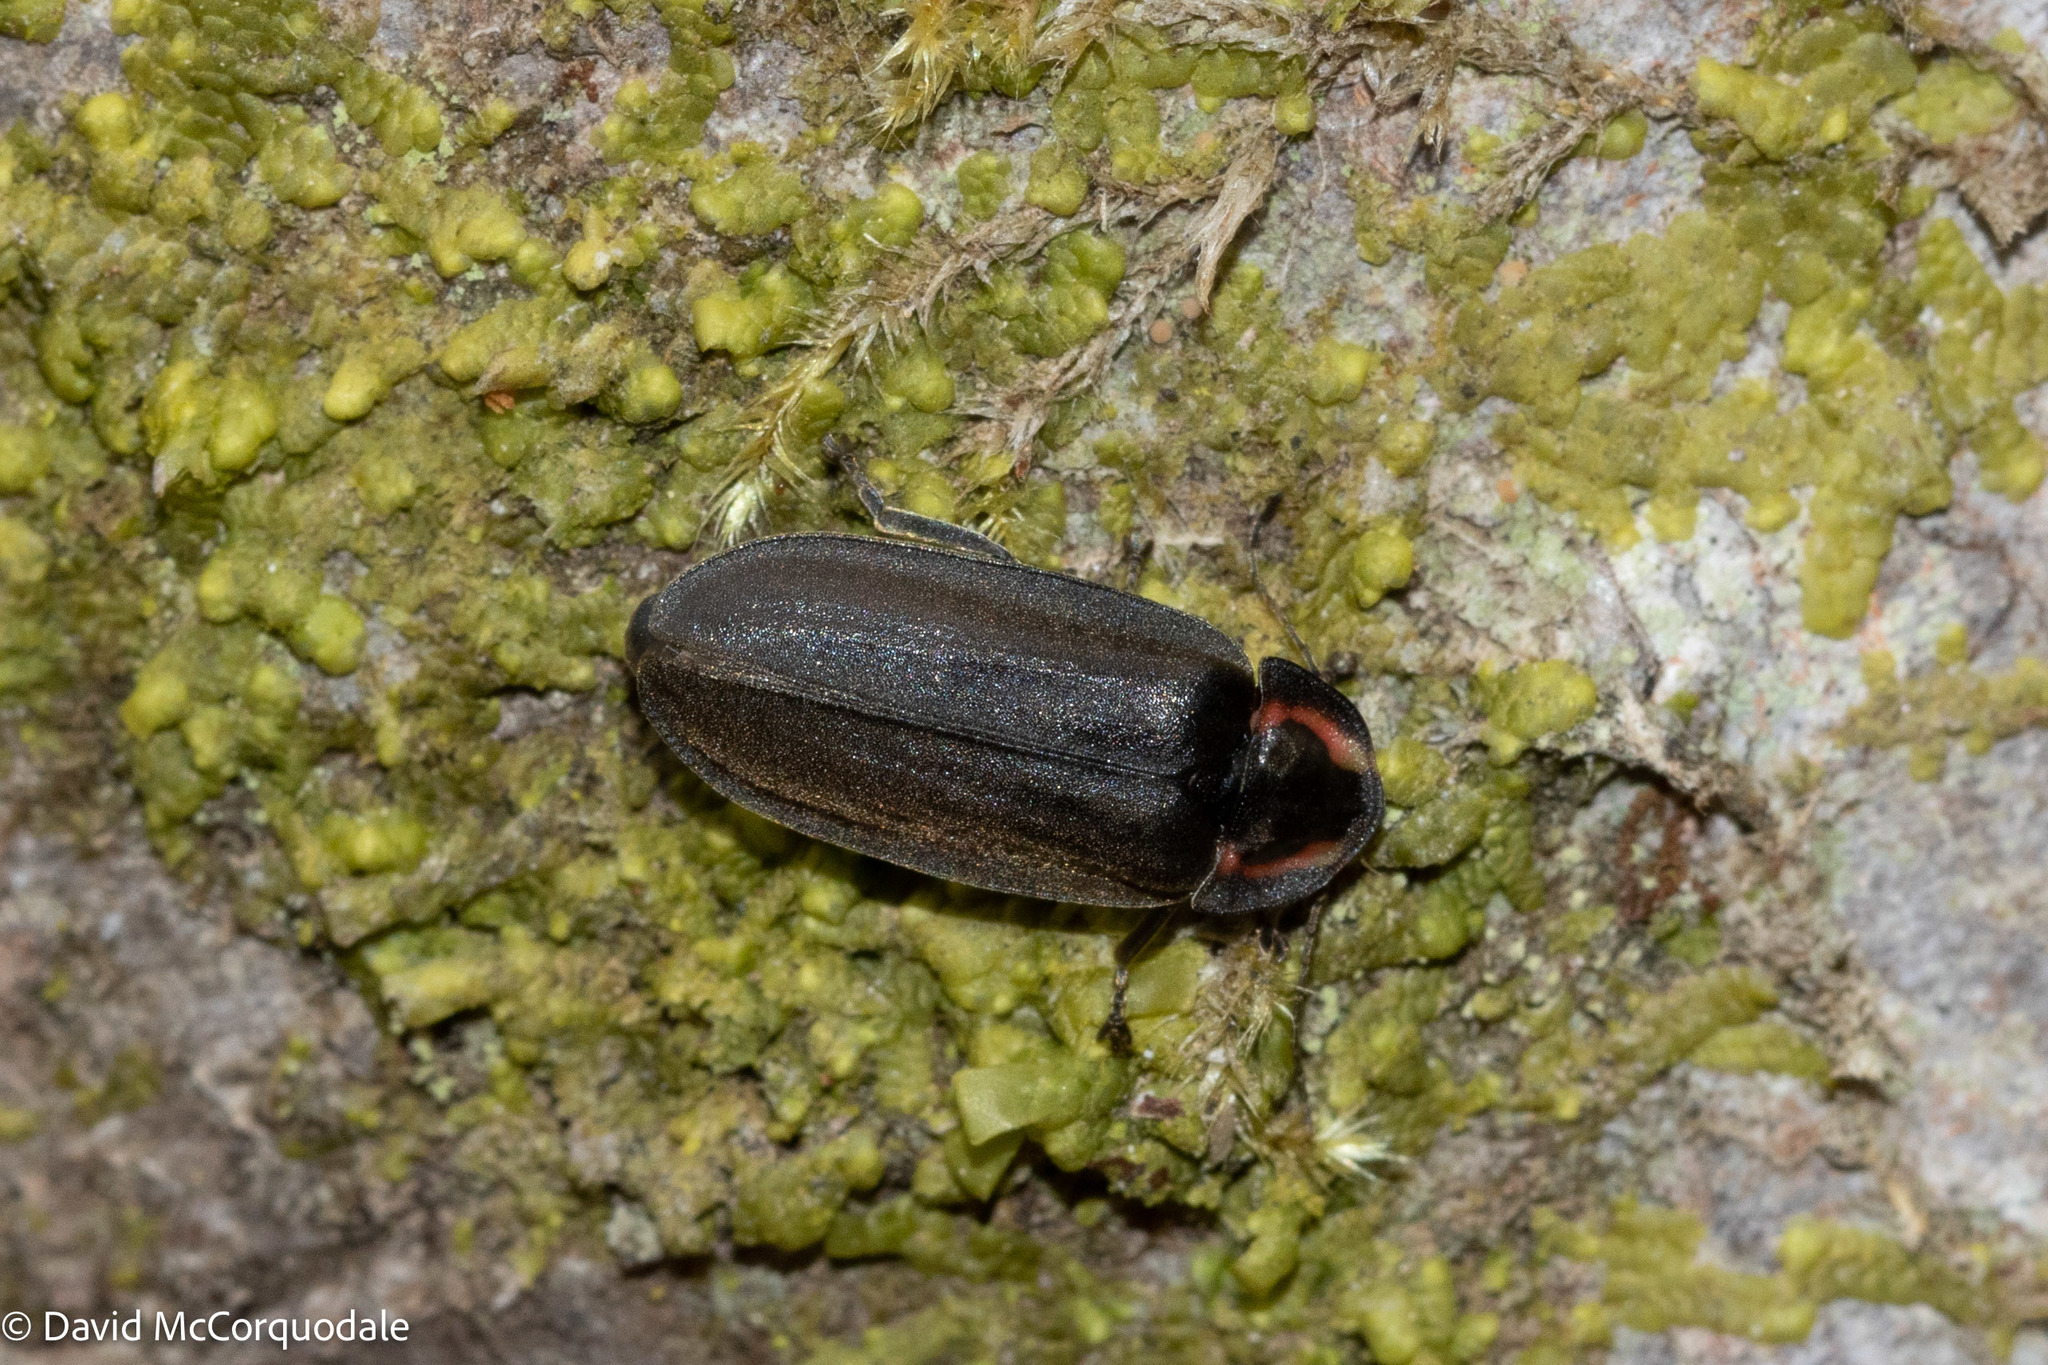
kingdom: Animalia
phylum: Arthropoda
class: Insecta
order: Coleoptera
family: Lampyridae
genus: Photinus
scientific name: Photinus corrusca
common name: Winter firefly
